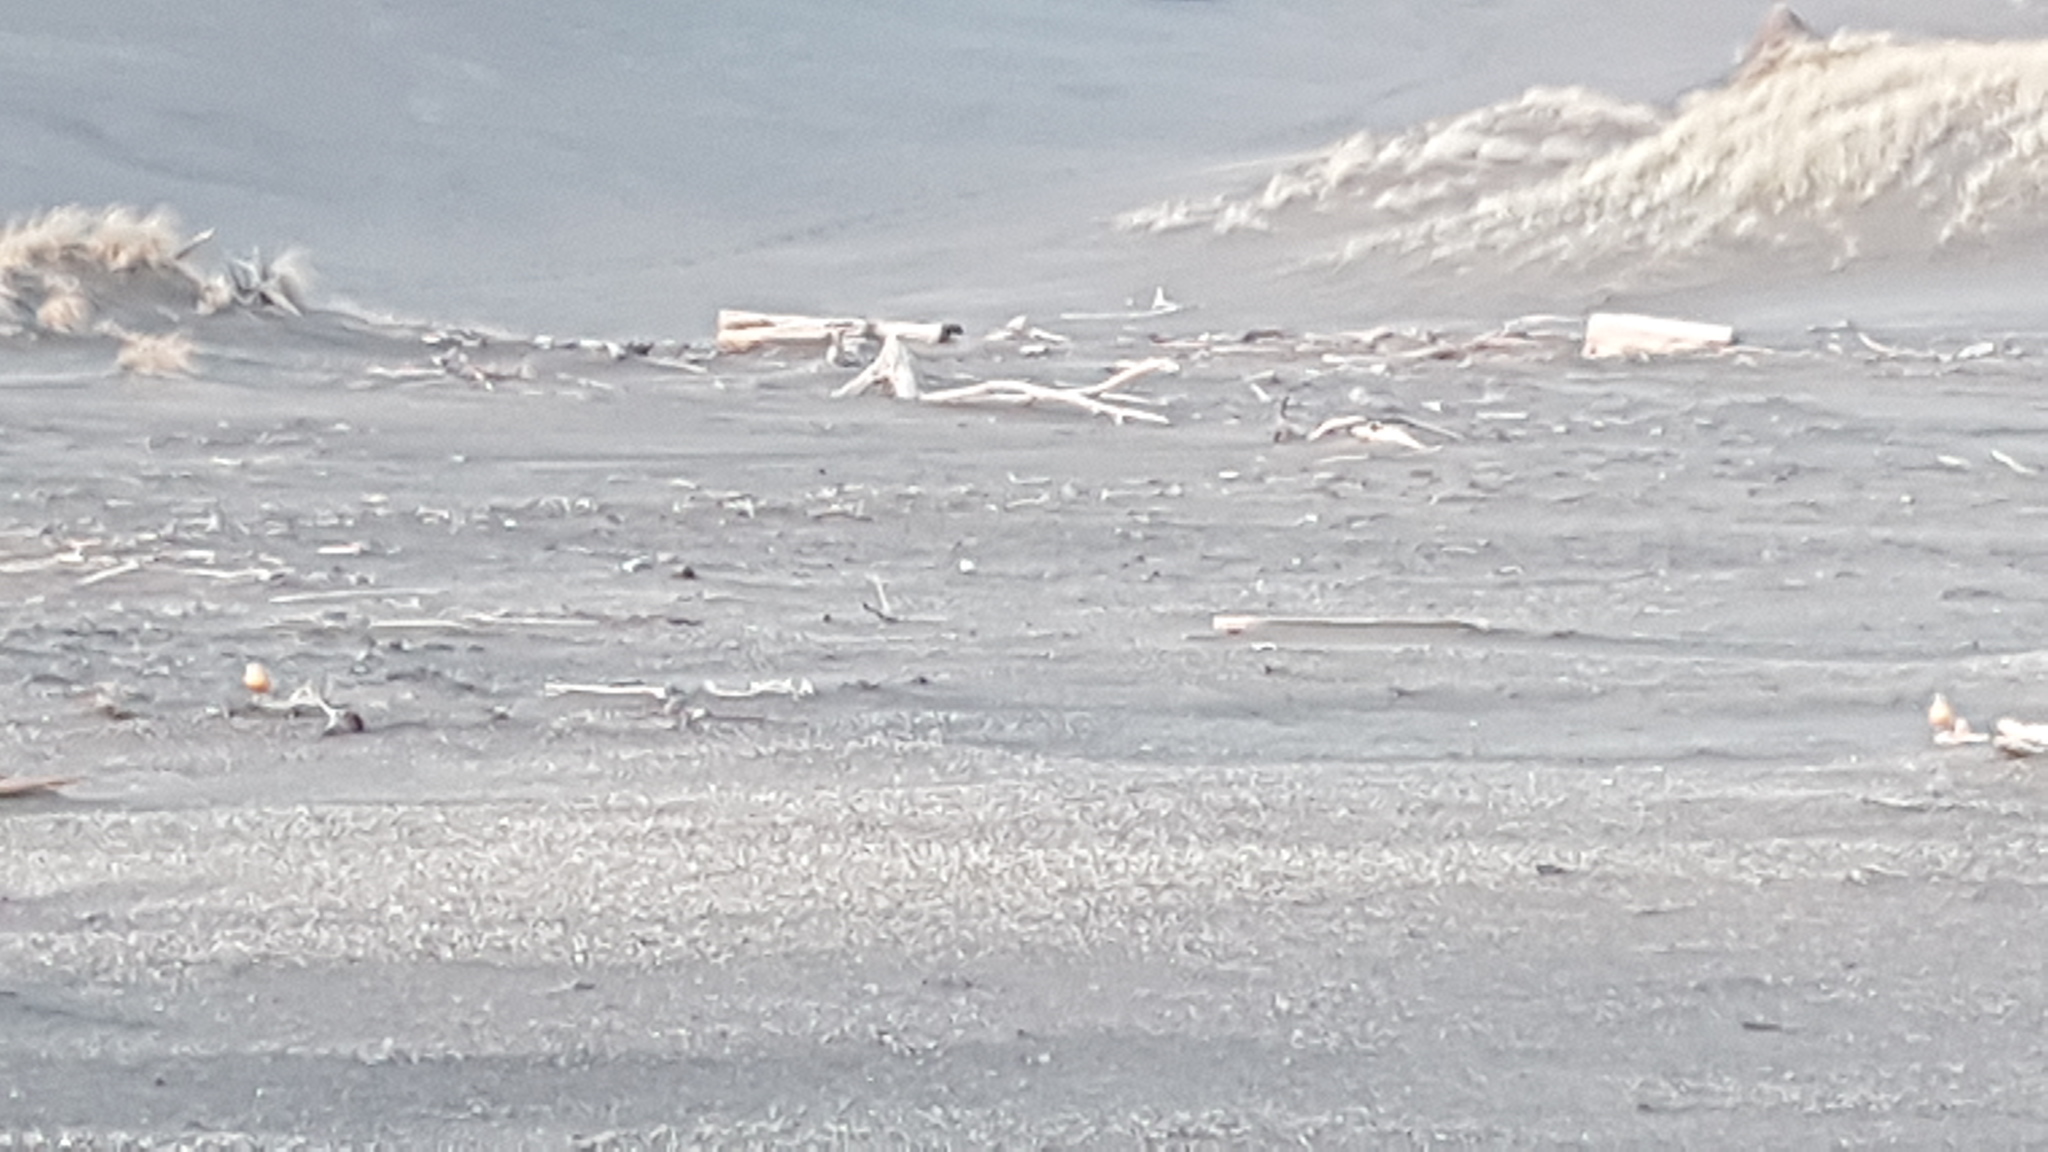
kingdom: Animalia
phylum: Chordata
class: Aves
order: Charadriiformes
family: Charadriidae
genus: Anarhynchus
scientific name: Anarhynchus
